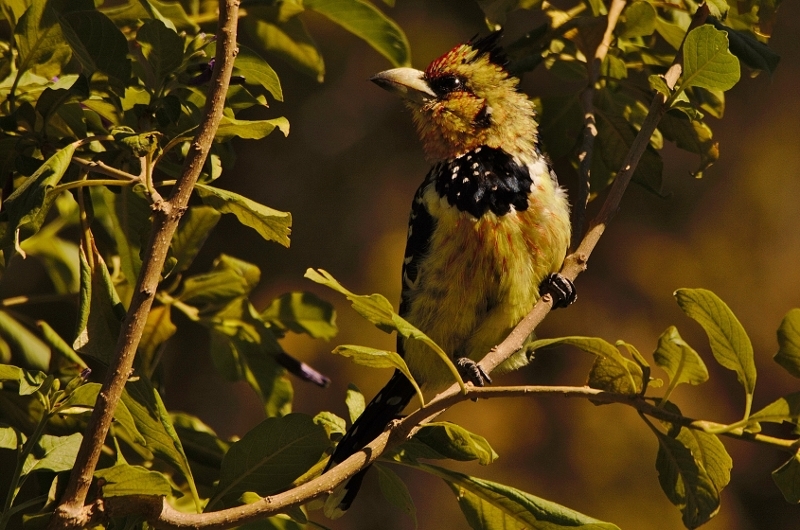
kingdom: Animalia
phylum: Chordata
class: Aves
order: Piciformes
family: Lybiidae
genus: Trachyphonus
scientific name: Trachyphonus vaillantii
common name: Crested barbet
